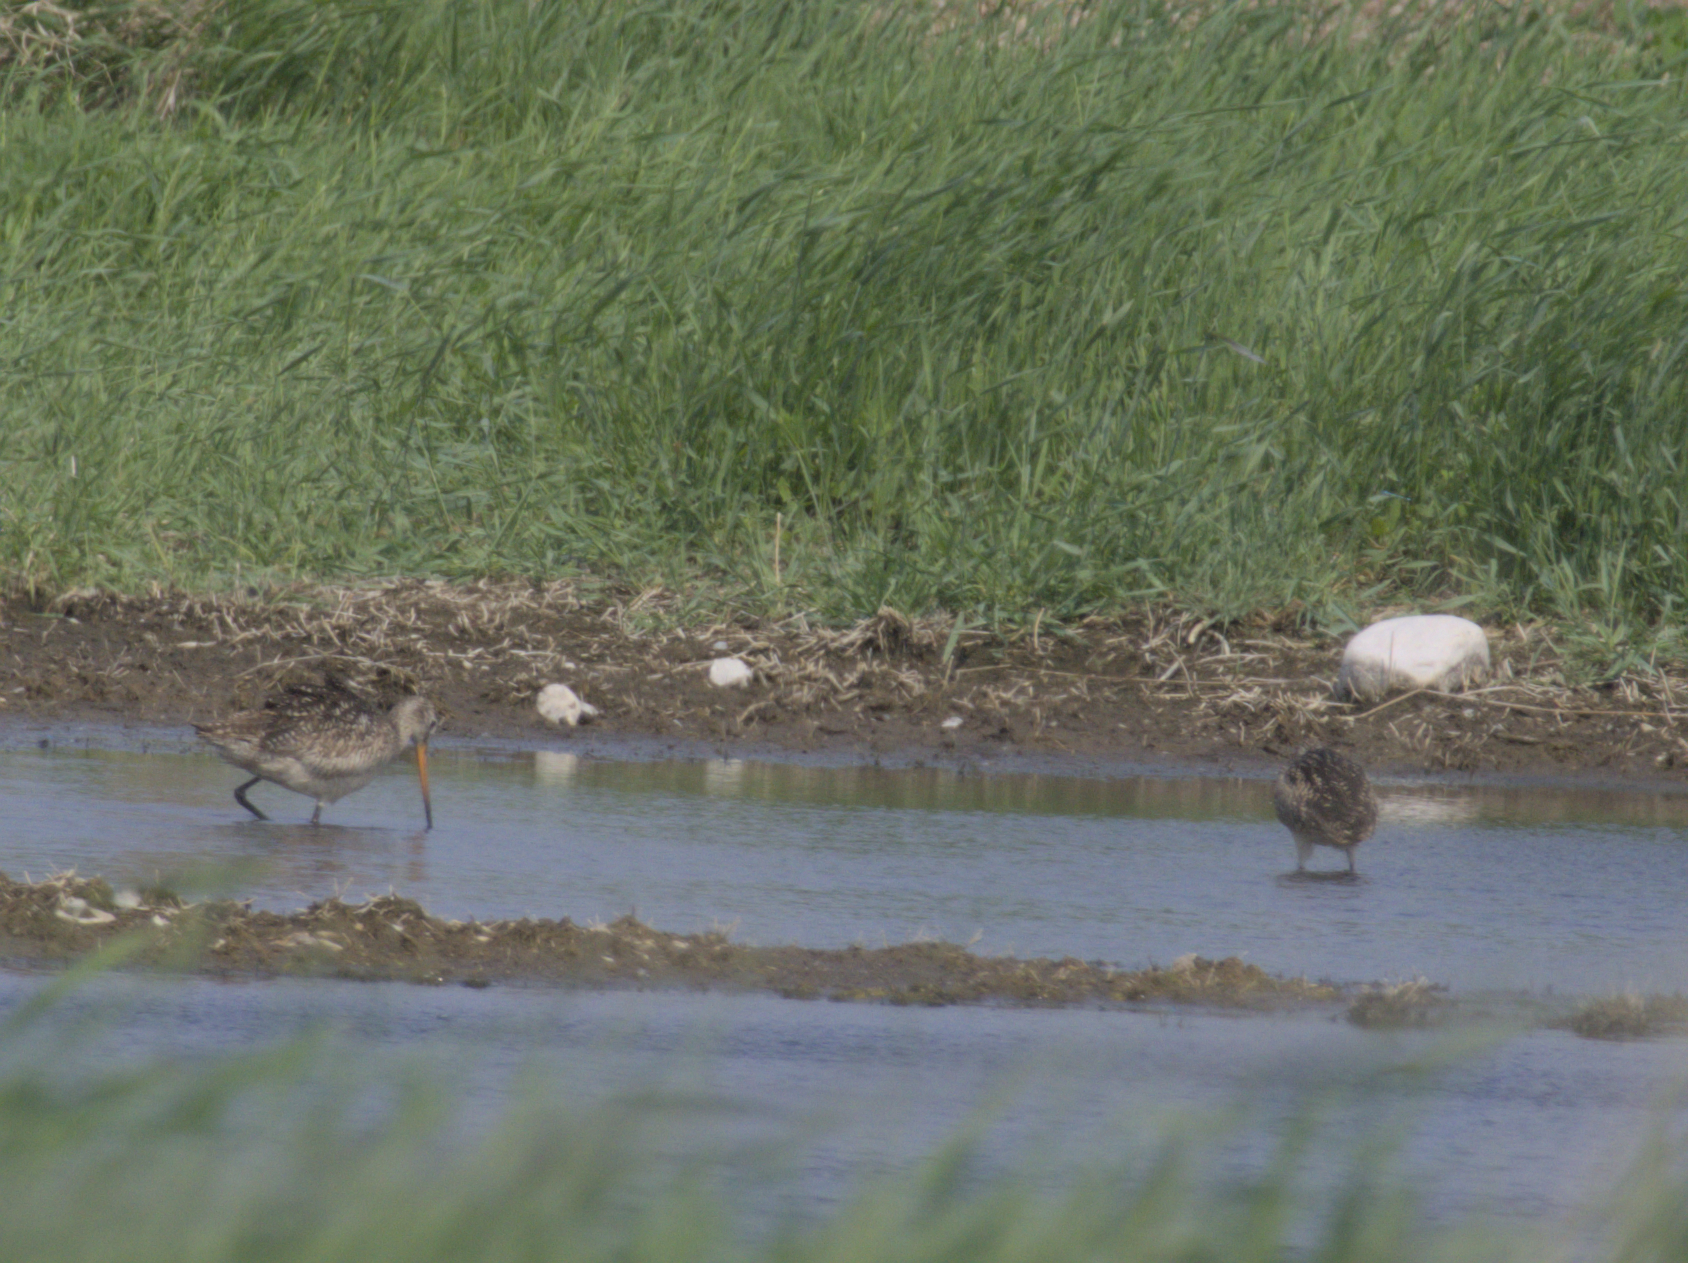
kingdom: Animalia
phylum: Chordata
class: Aves
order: Charadriiformes
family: Scolopacidae
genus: Limosa
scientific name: Limosa fedoa
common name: Marbled godwit
